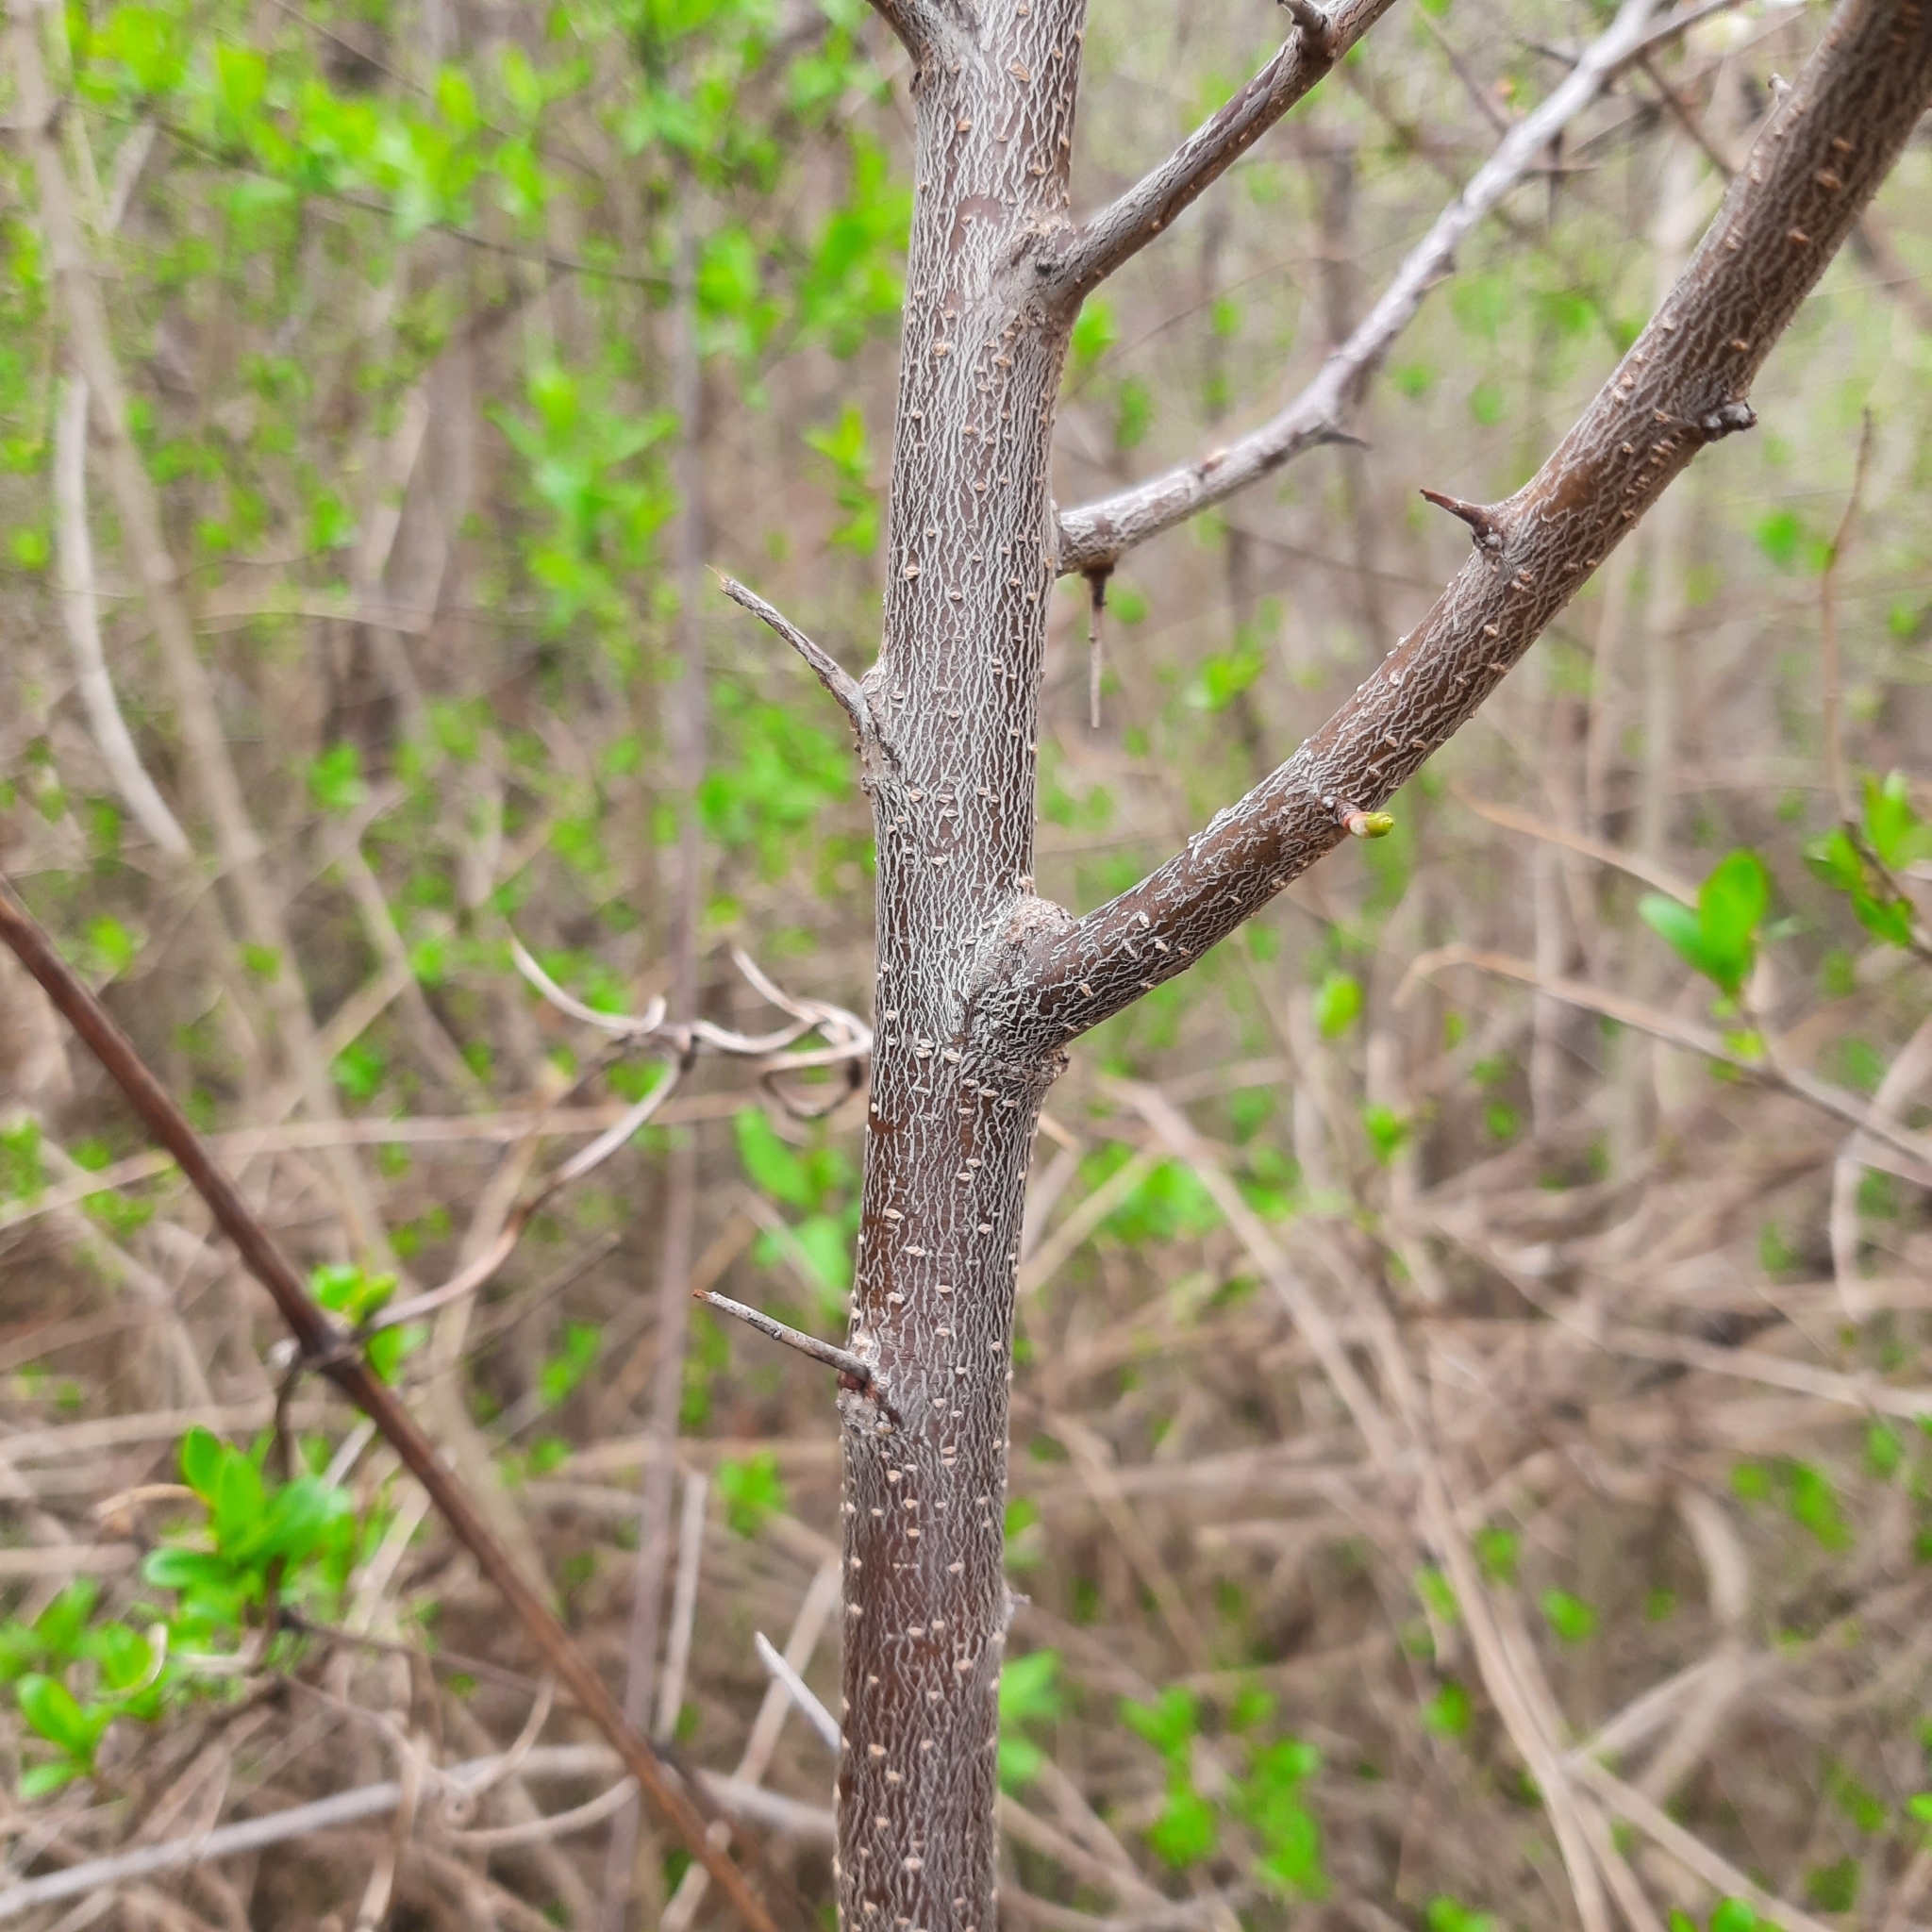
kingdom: Plantae
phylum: Tracheophyta
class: Magnoliopsida
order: Rosales
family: Rosaceae
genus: Prunus
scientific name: Prunus spinosa
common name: Blackthorn
